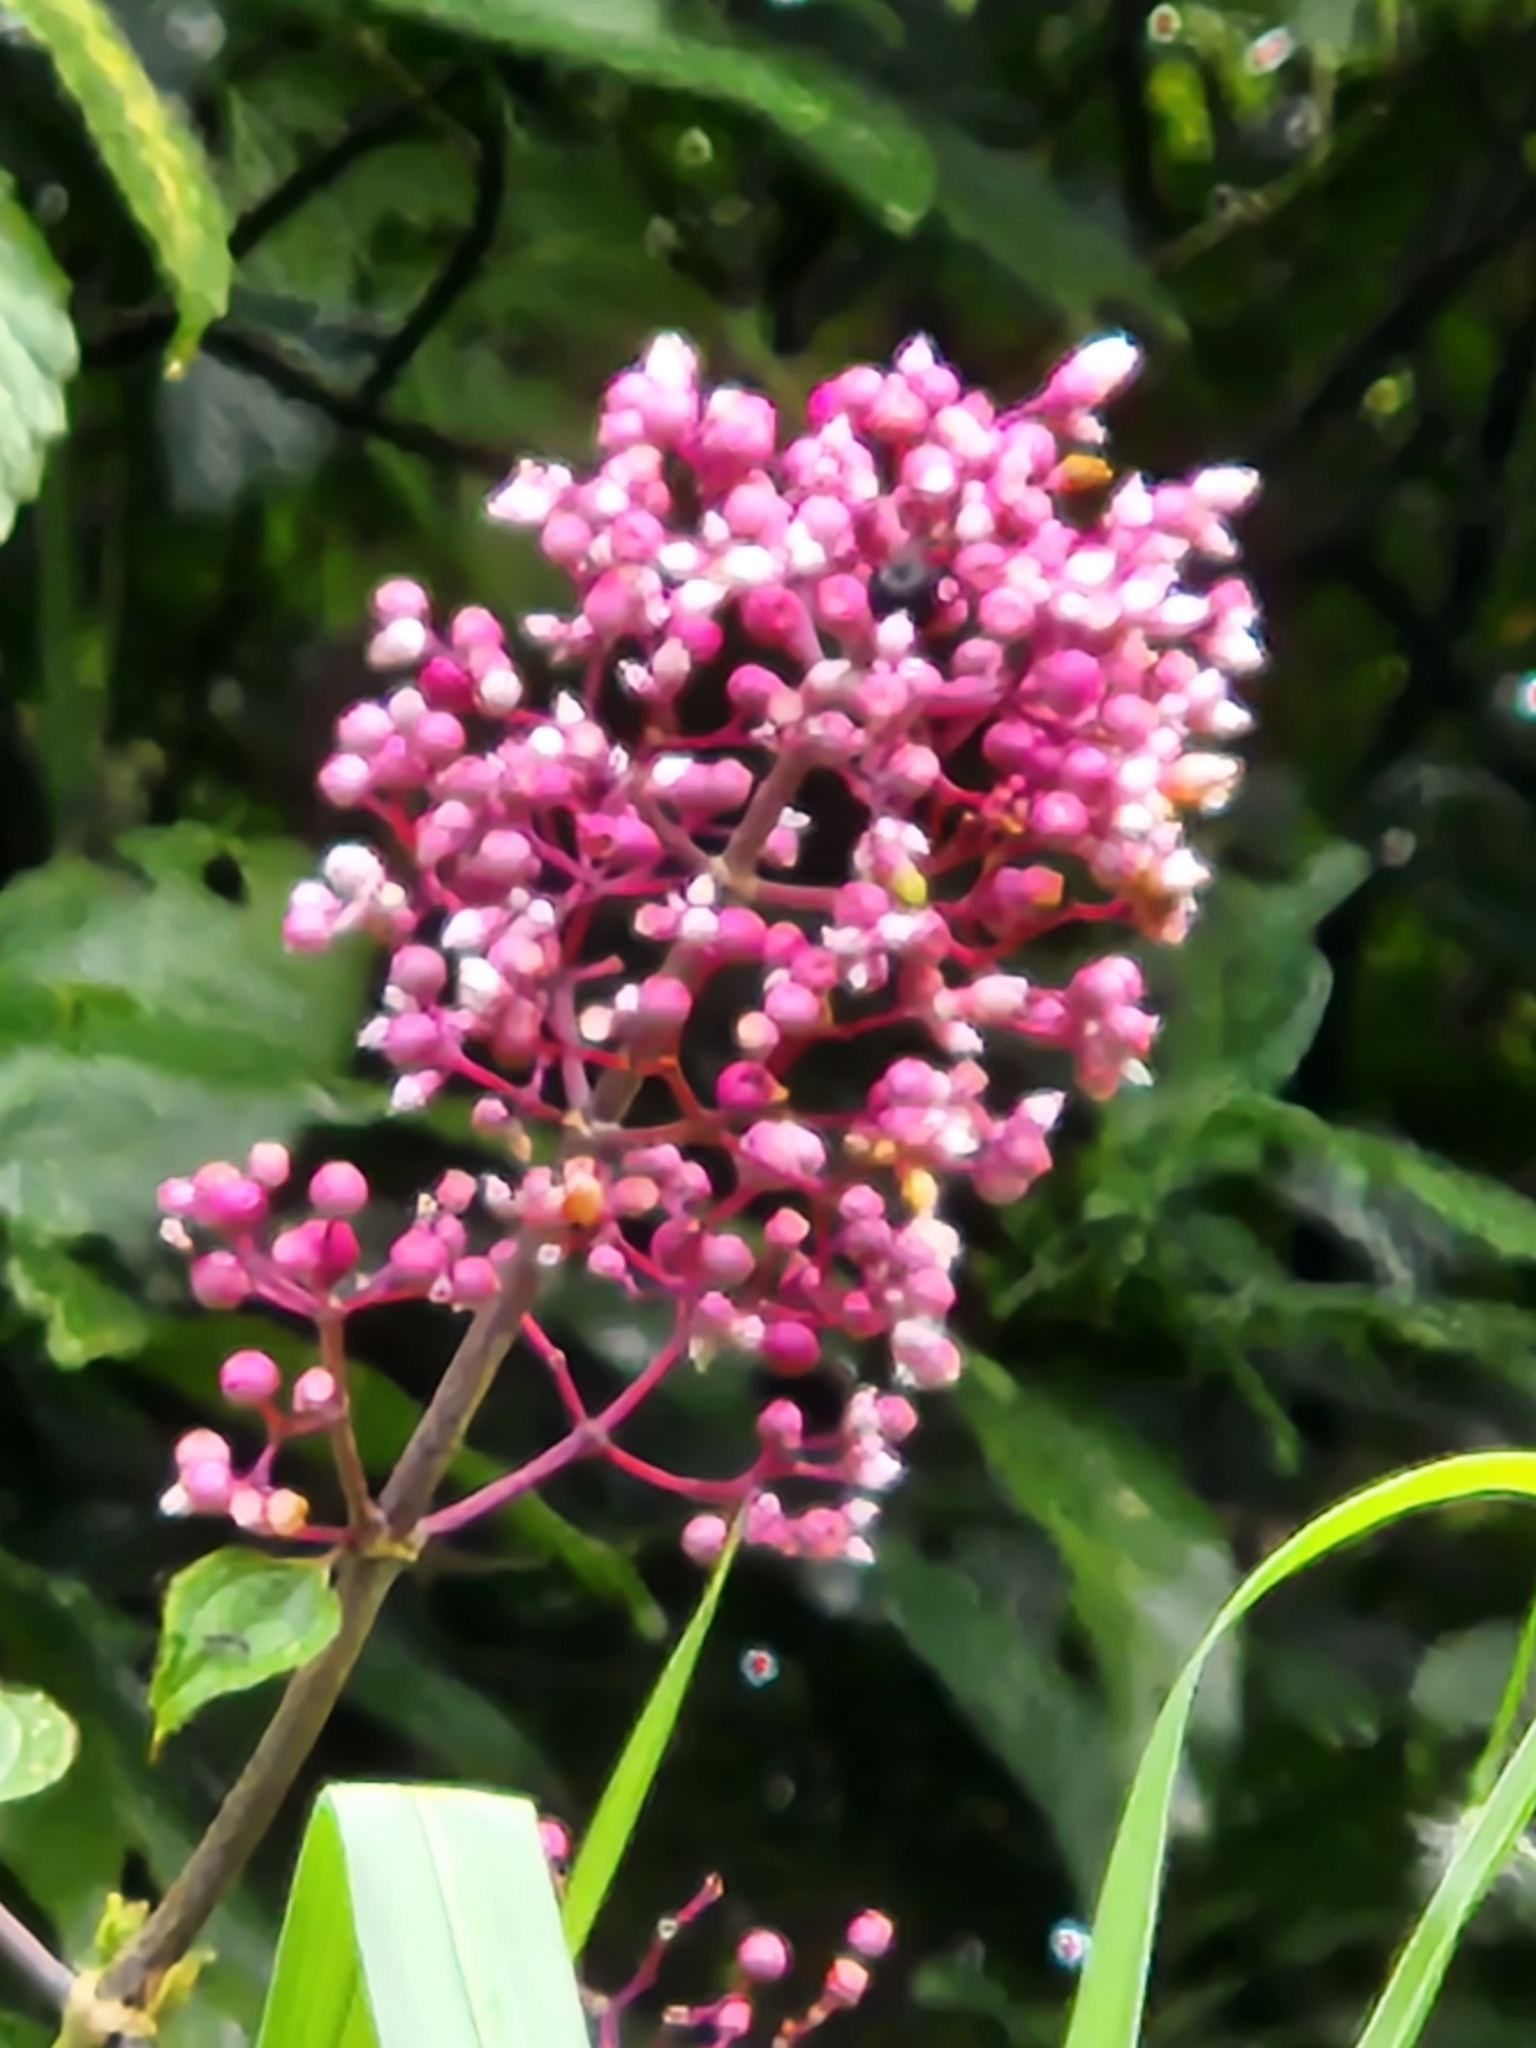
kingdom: Plantae
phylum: Tracheophyta
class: Magnoliopsida
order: Myrtales
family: Melastomataceae
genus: Miconia
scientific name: Miconia subcrustulata
